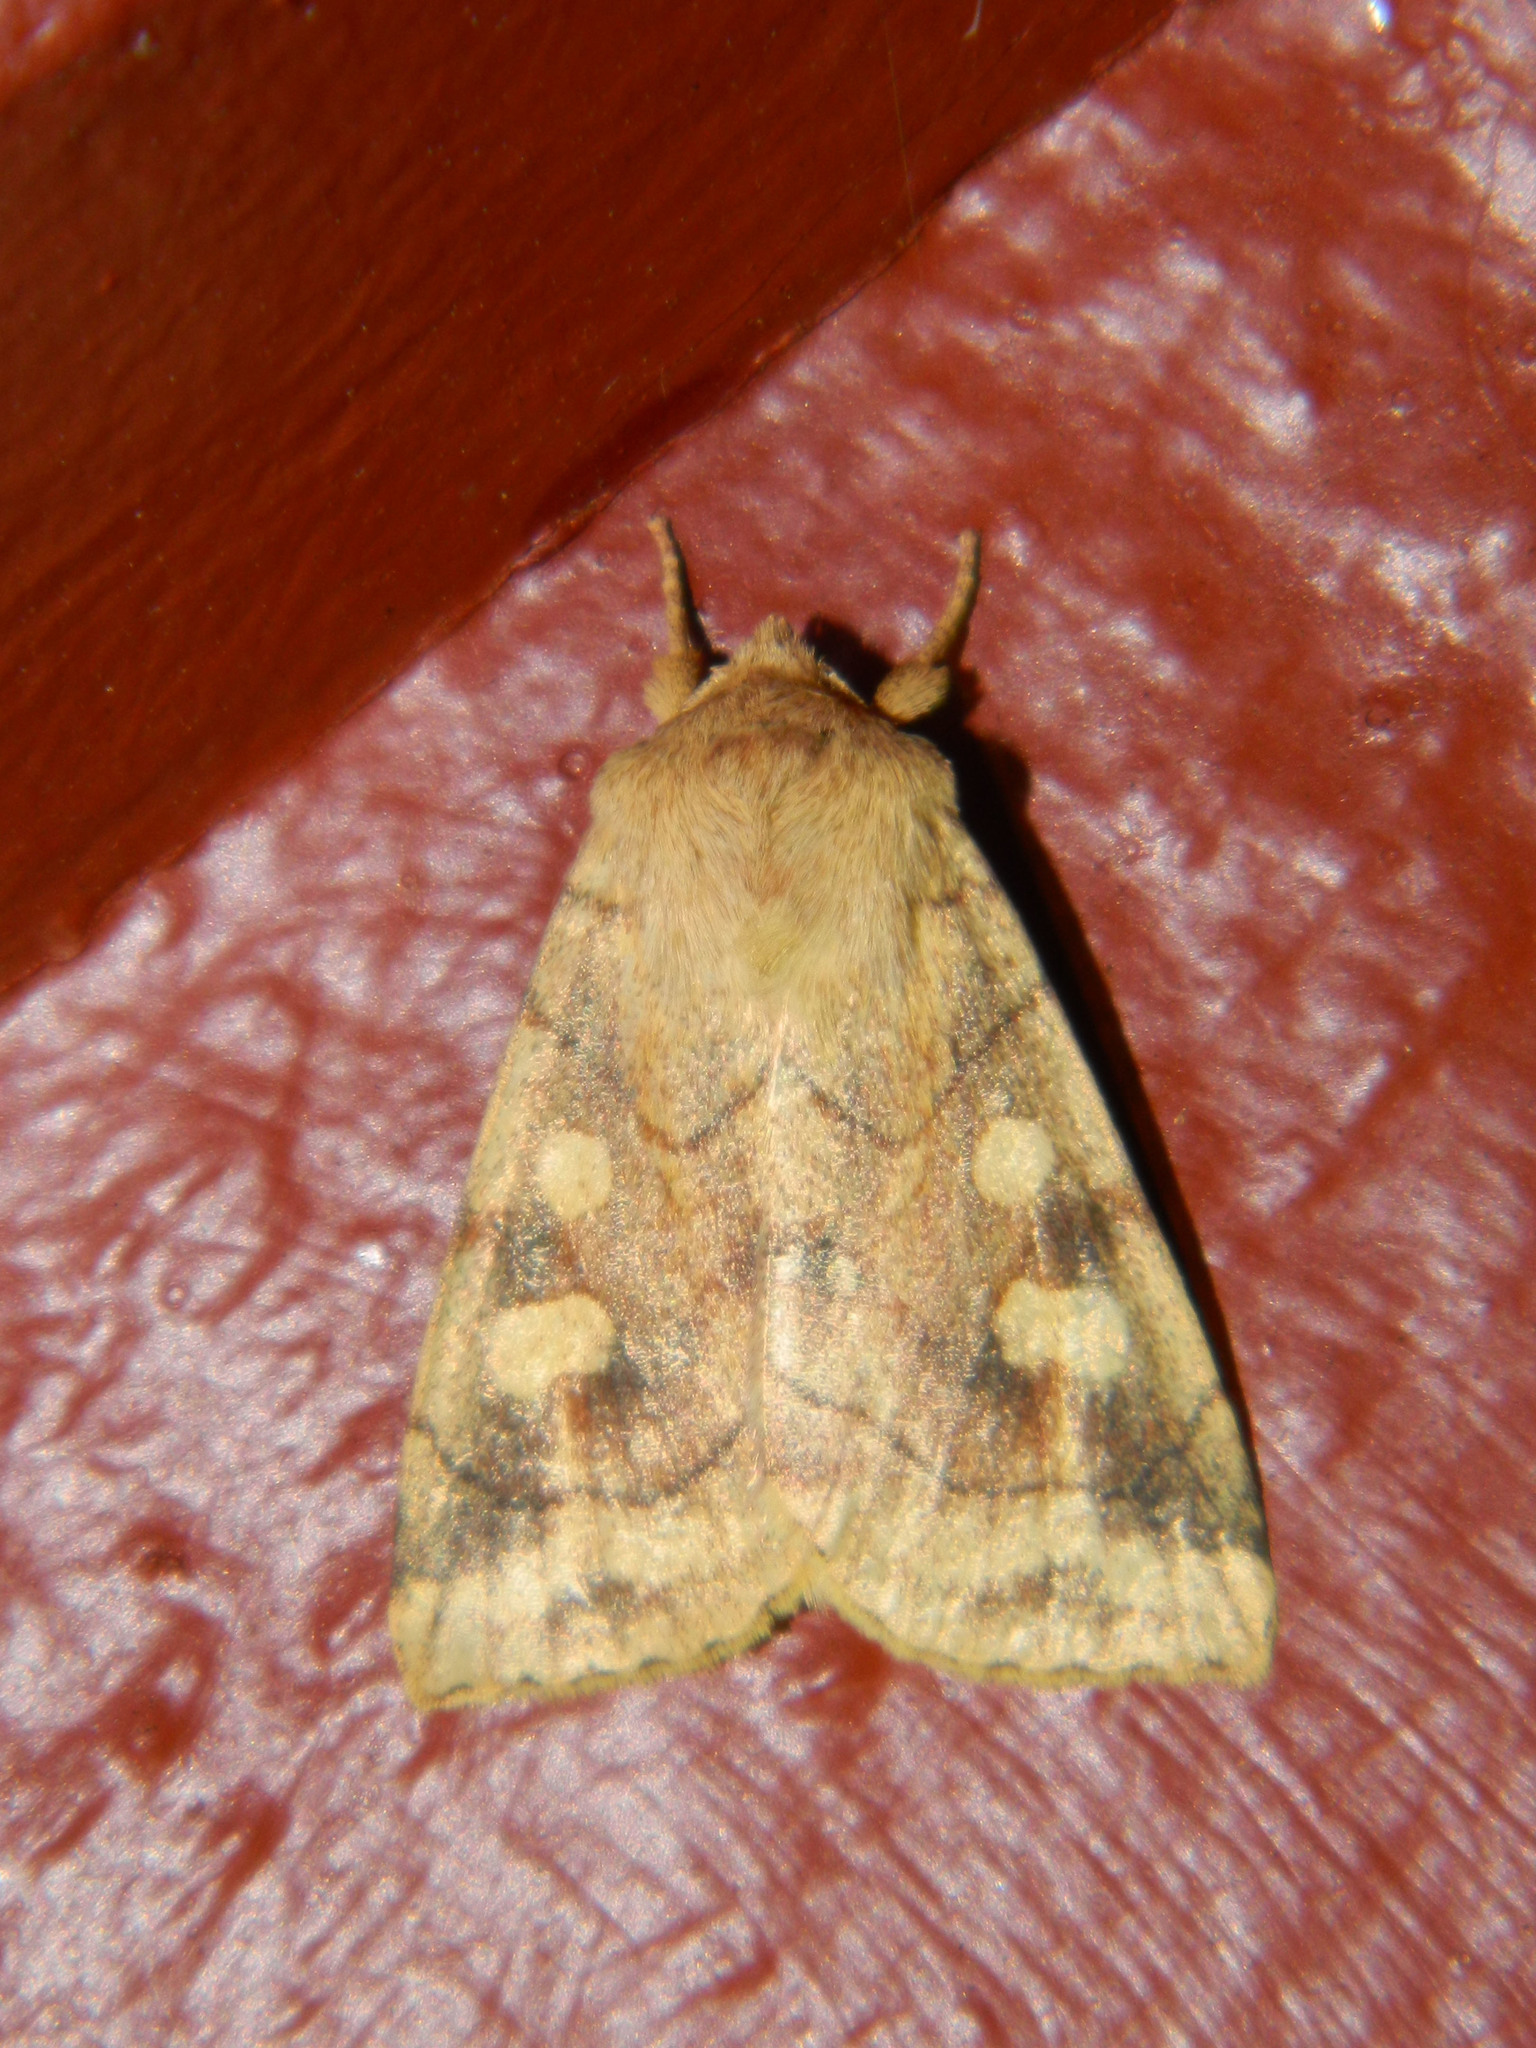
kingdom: Animalia
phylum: Arthropoda
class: Insecta
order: Lepidoptera
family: Noctuidae
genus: Enargia
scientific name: Enargia decolor
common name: Aspen twoleaf tier moth
